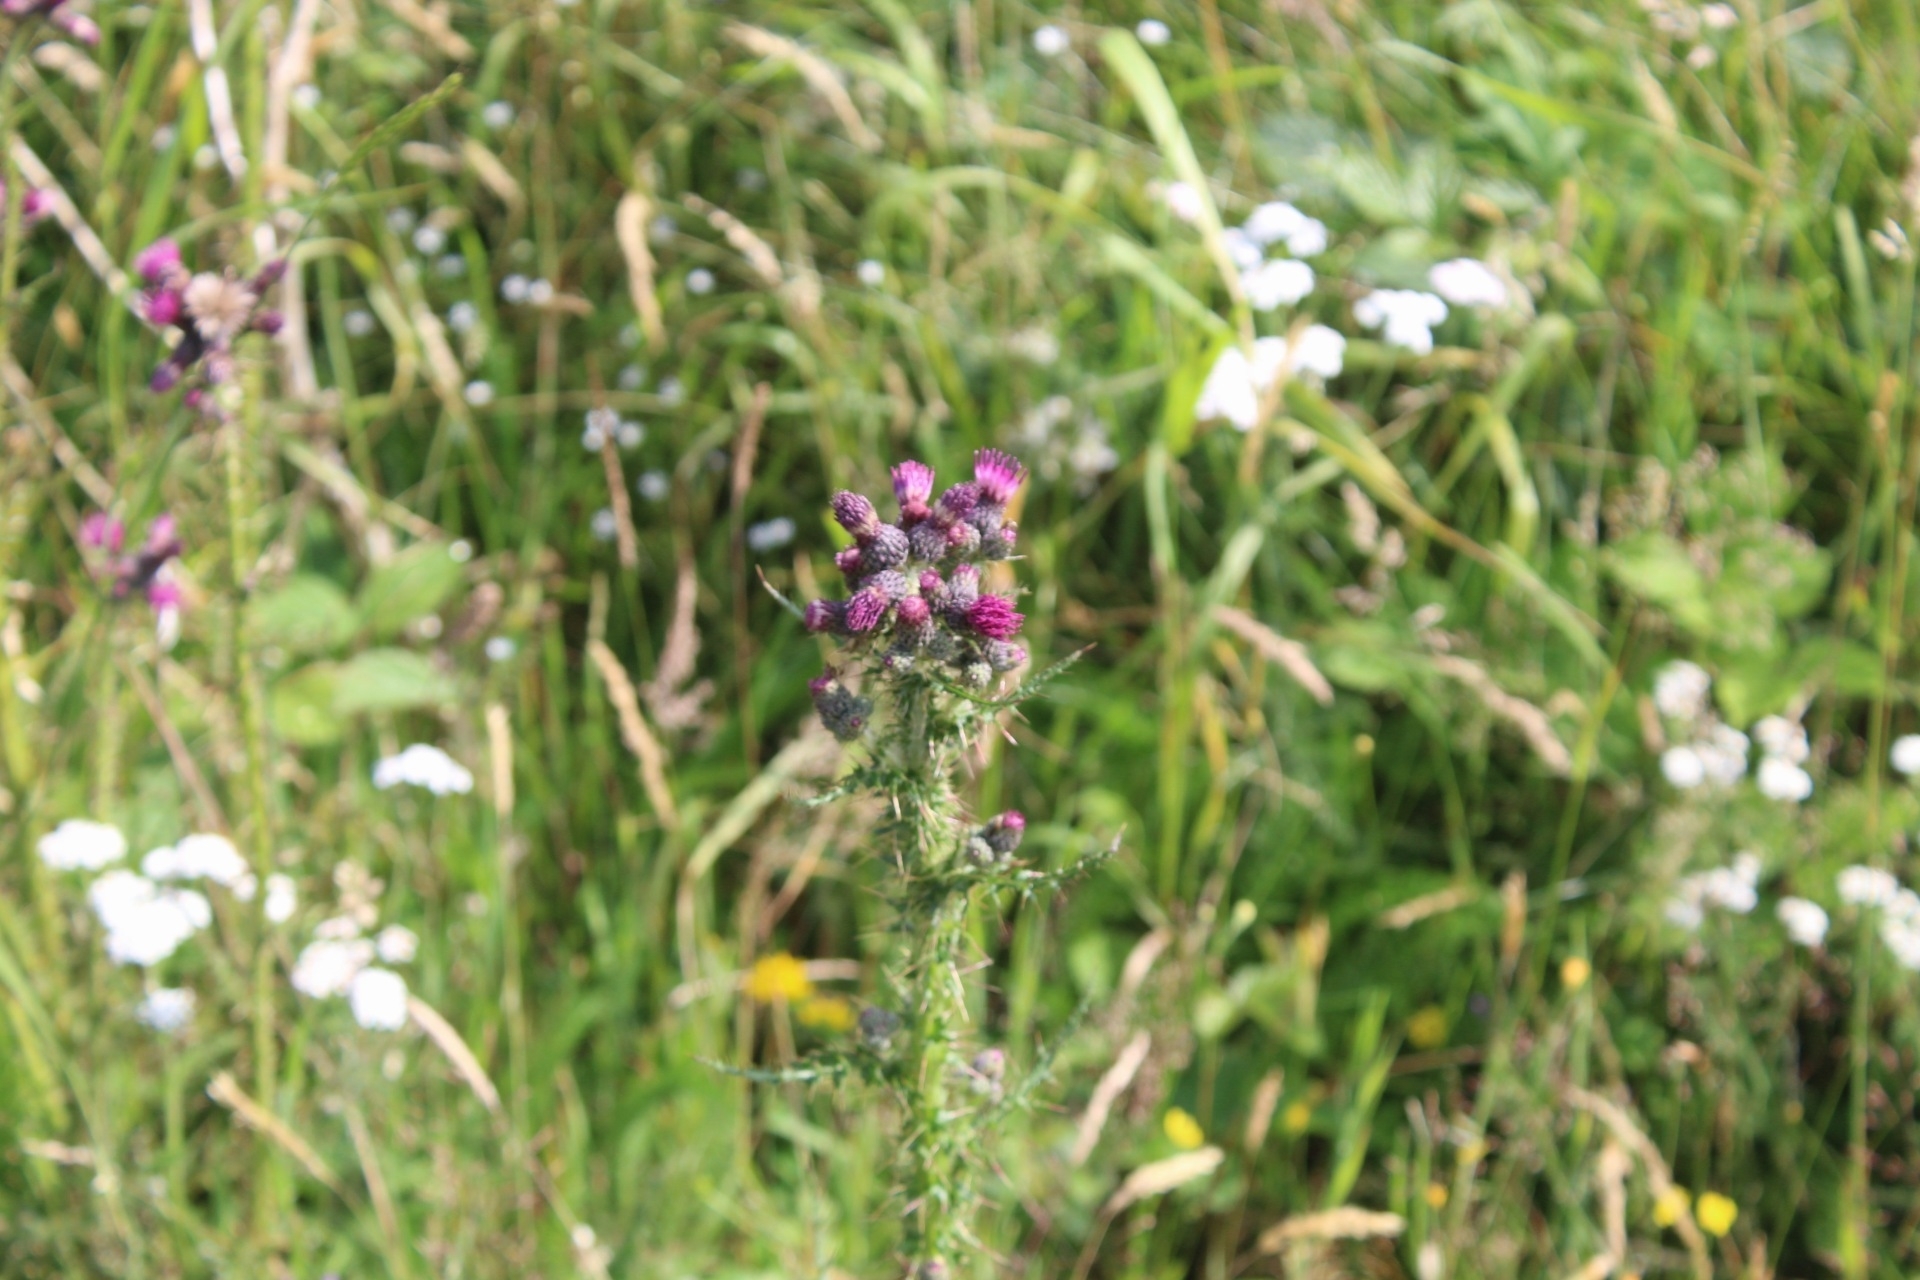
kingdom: Plantae
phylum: Tracheophyta
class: Magnoliopsida
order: Asterales
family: Asteraceae
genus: Cirsium
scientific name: Cirsium palustre
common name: Marsh thistle
